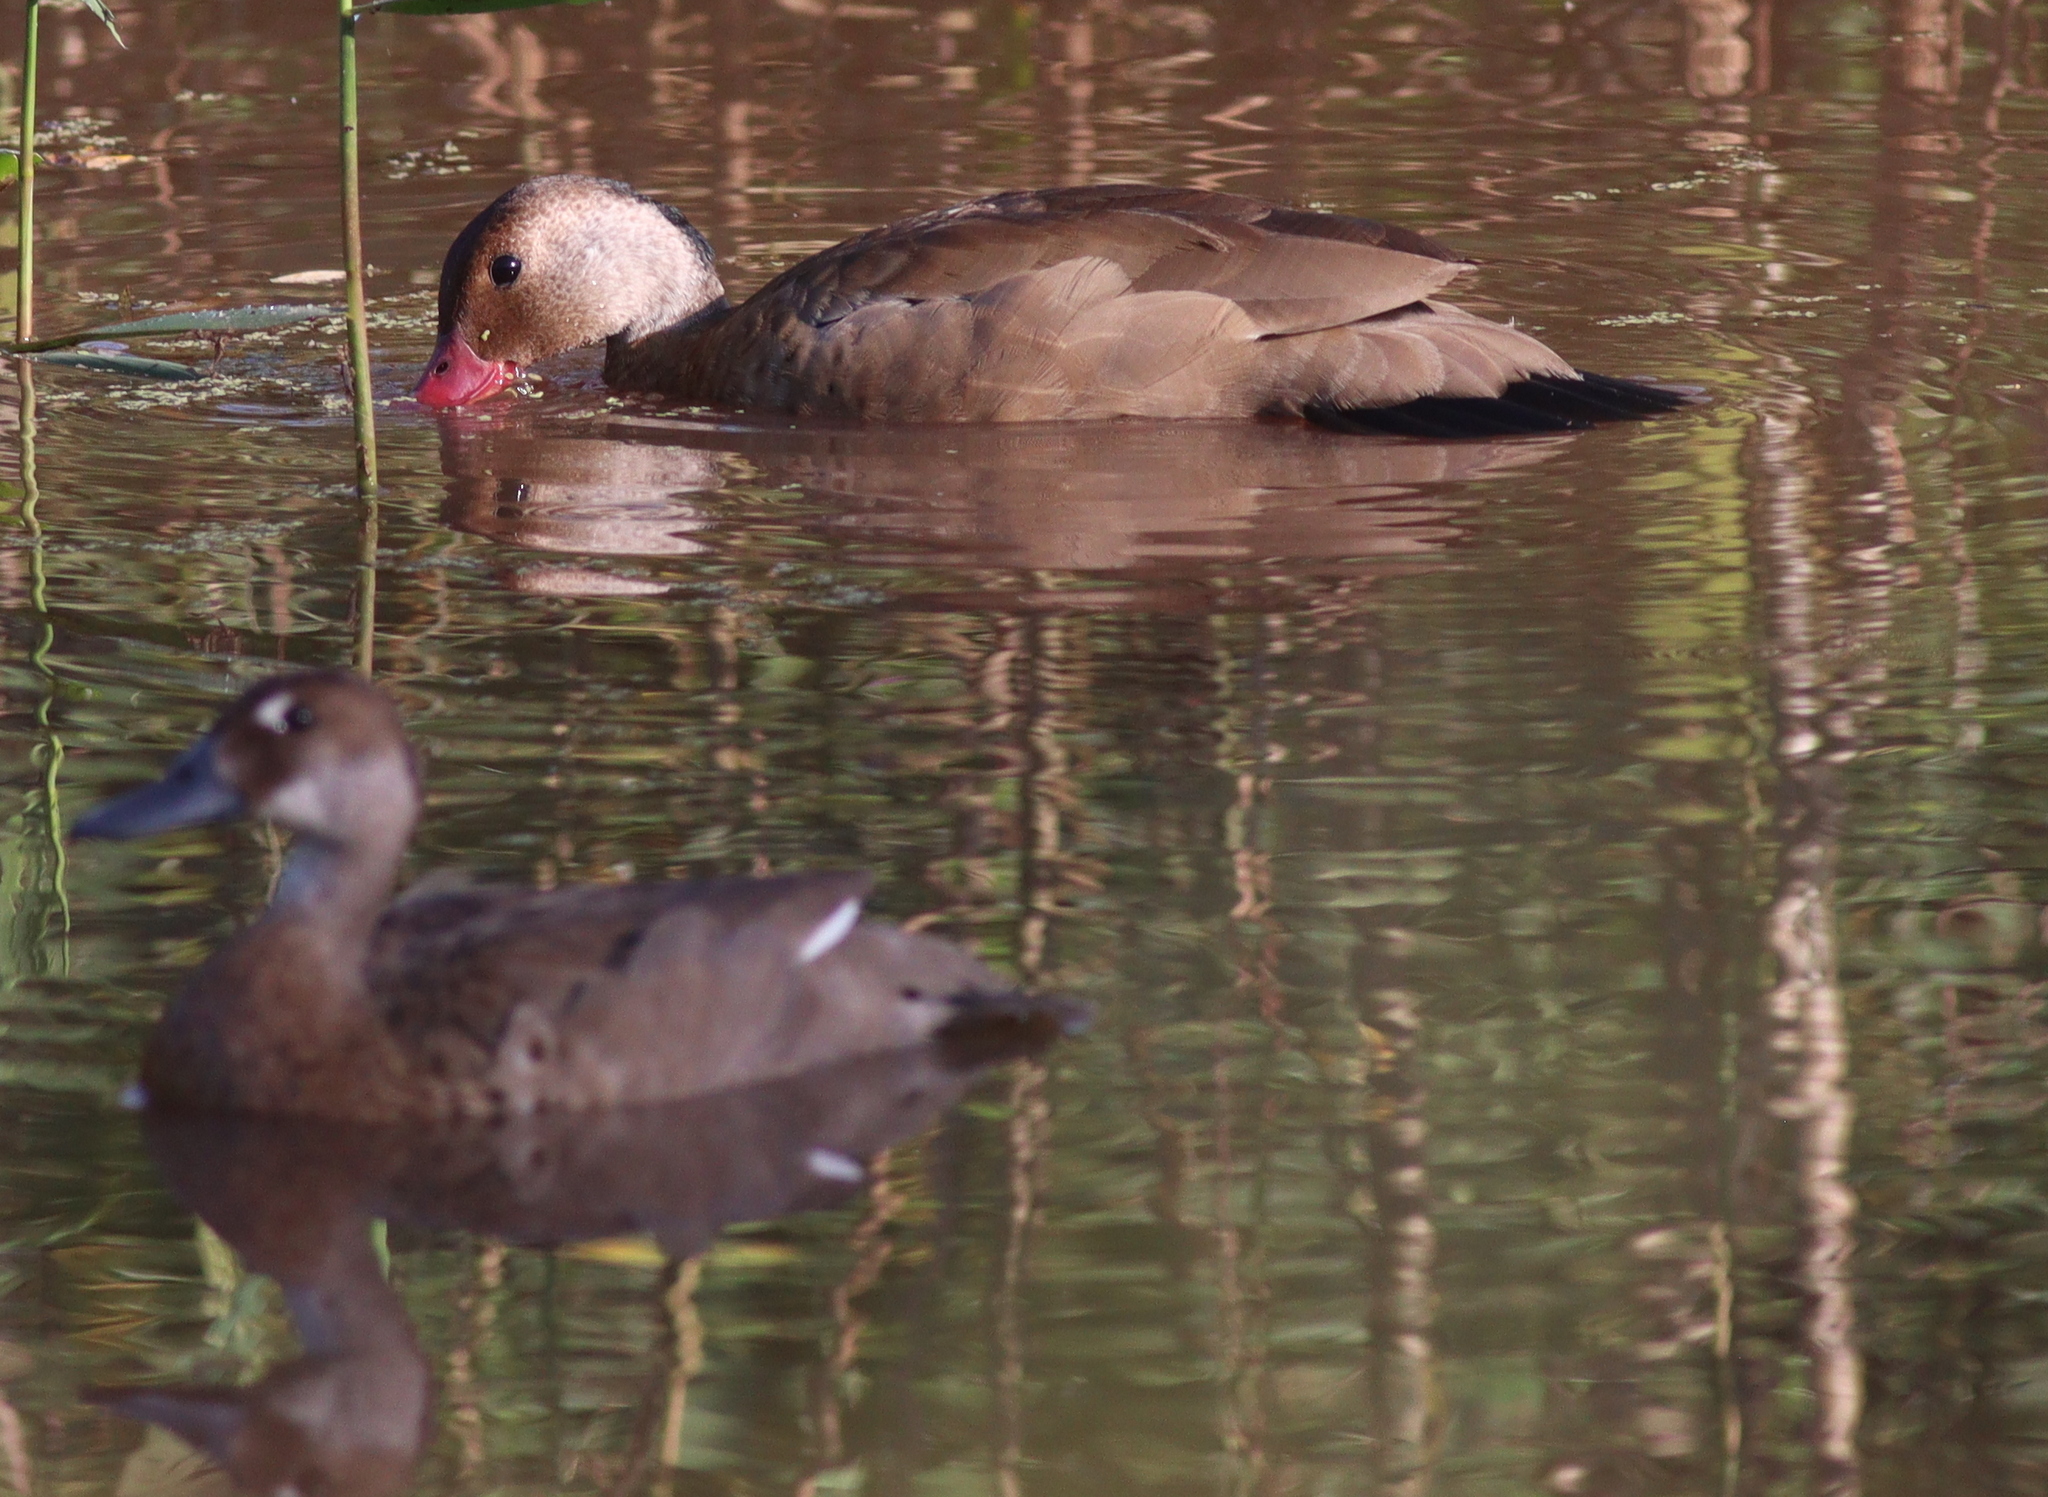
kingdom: Animalia
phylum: Chordata
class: Aves
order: Anseriformes
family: Anatidae
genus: Amazonetta
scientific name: Amazonetta brasiliensis
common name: Brazilian teal
